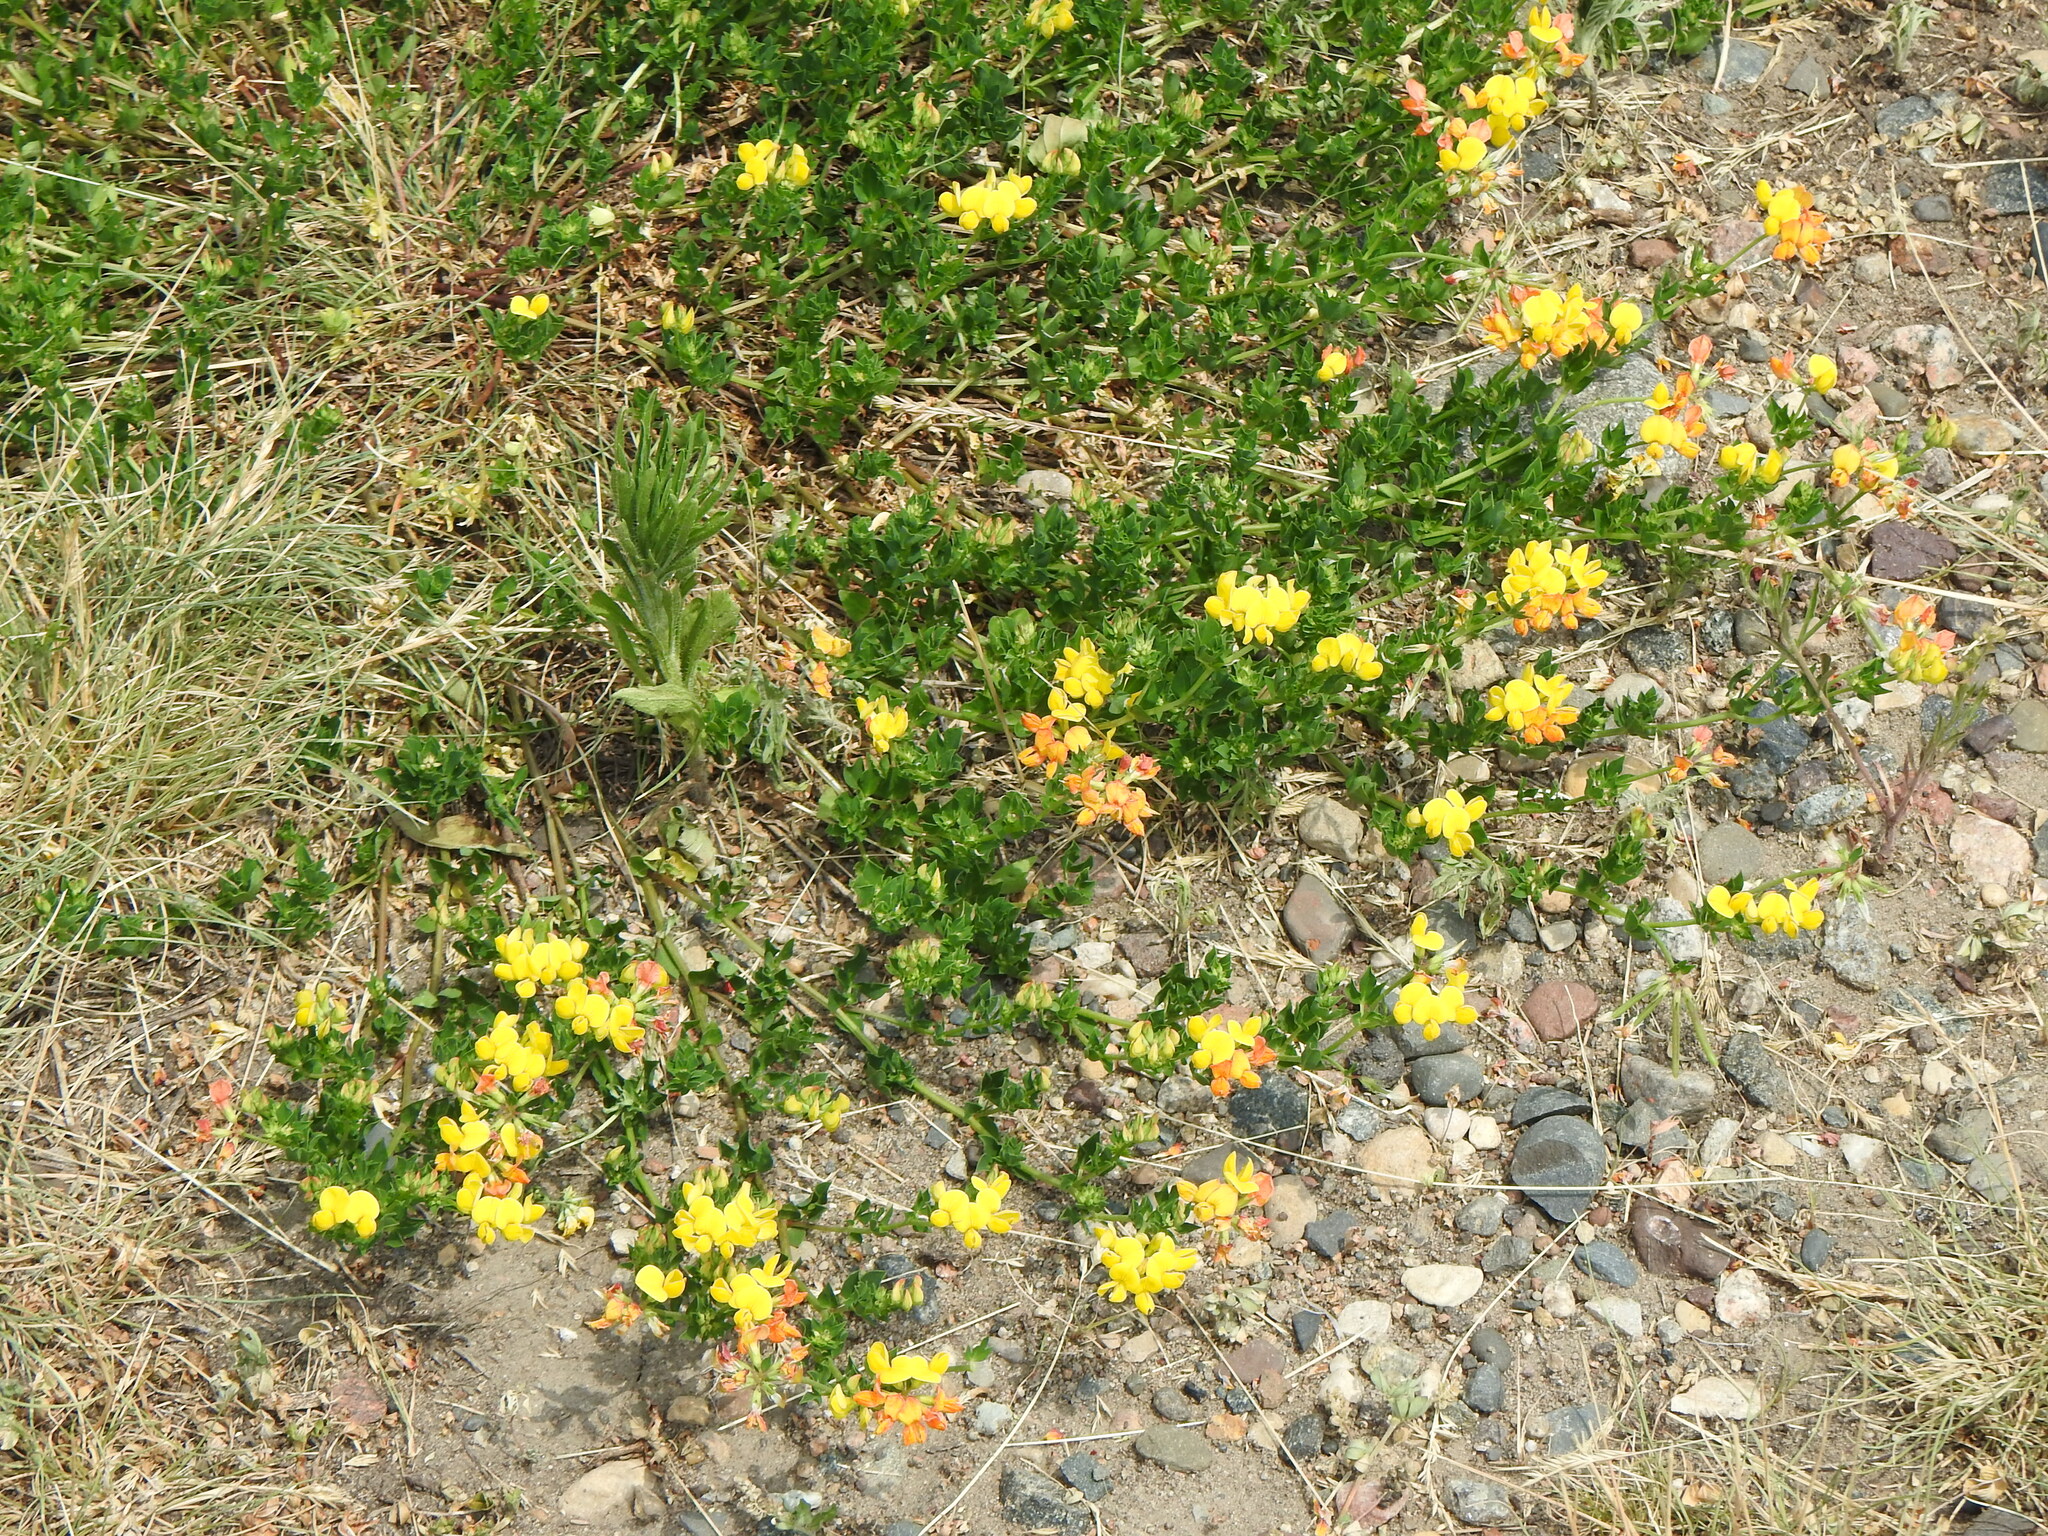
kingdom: Plantae
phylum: Tracheophyta
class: Magnoliopsida
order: Fabales
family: Fabaceae
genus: Lotus
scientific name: Lotus corniculatus
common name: Common bird's-foot-trefoil
